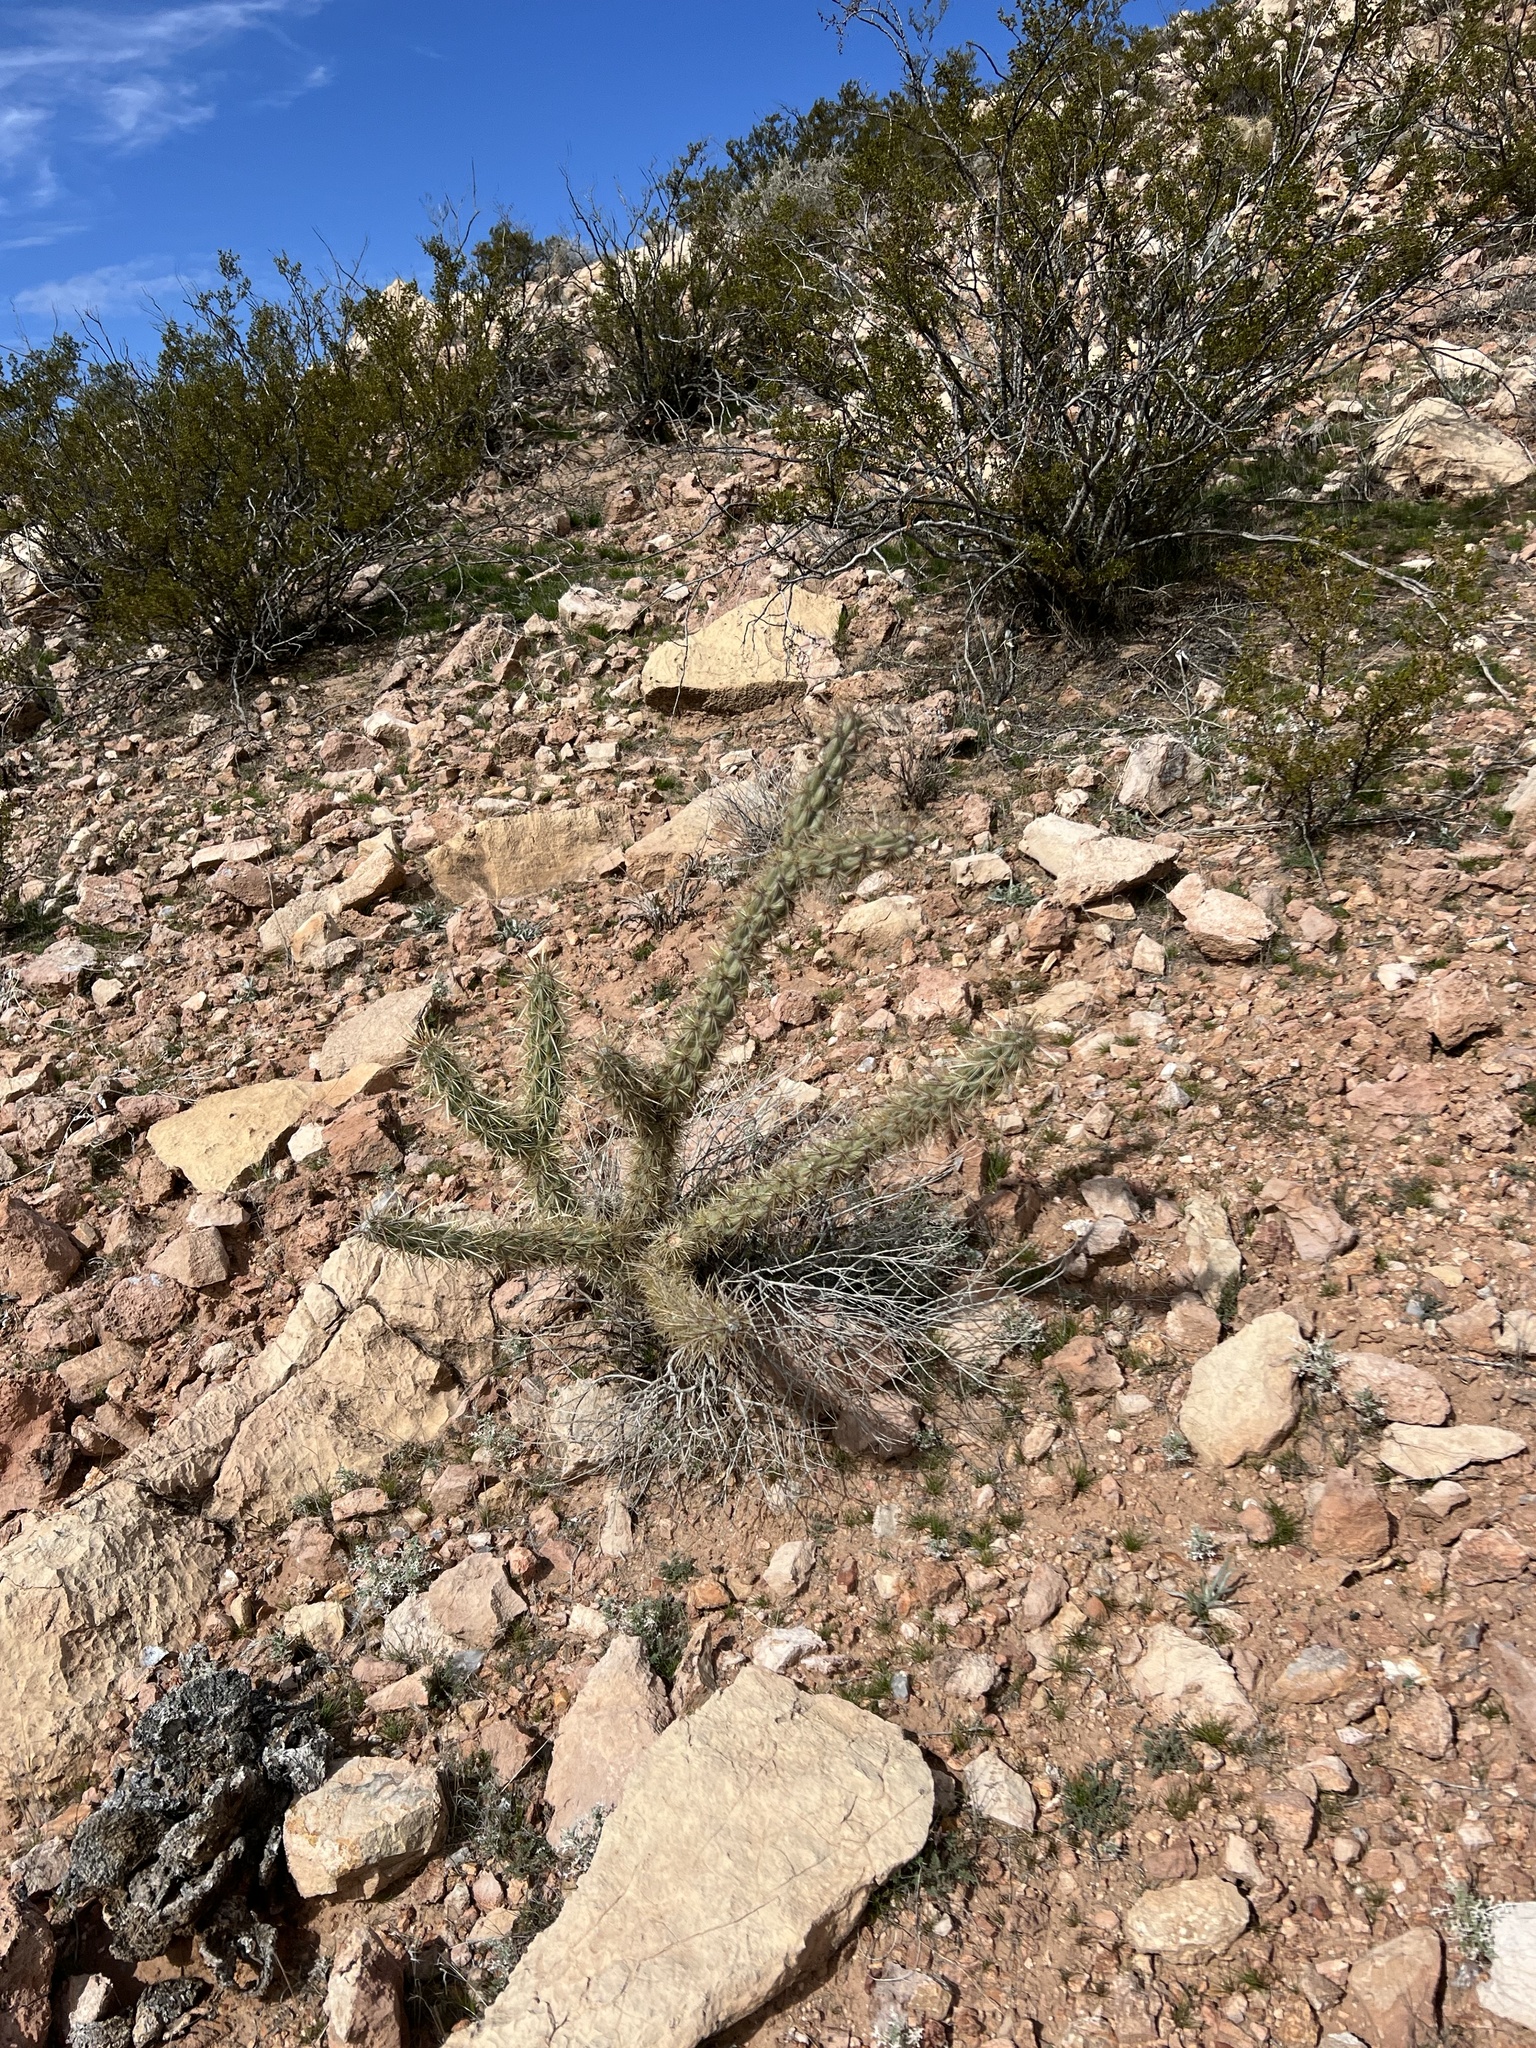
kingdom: Plantae
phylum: Tracheophyta
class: Magnoliopsida
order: Caryophyllales
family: Cactaceae
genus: Cylindropuntia
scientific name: Cylindropuntia acanthocarpa
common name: Buckhorn cholla
